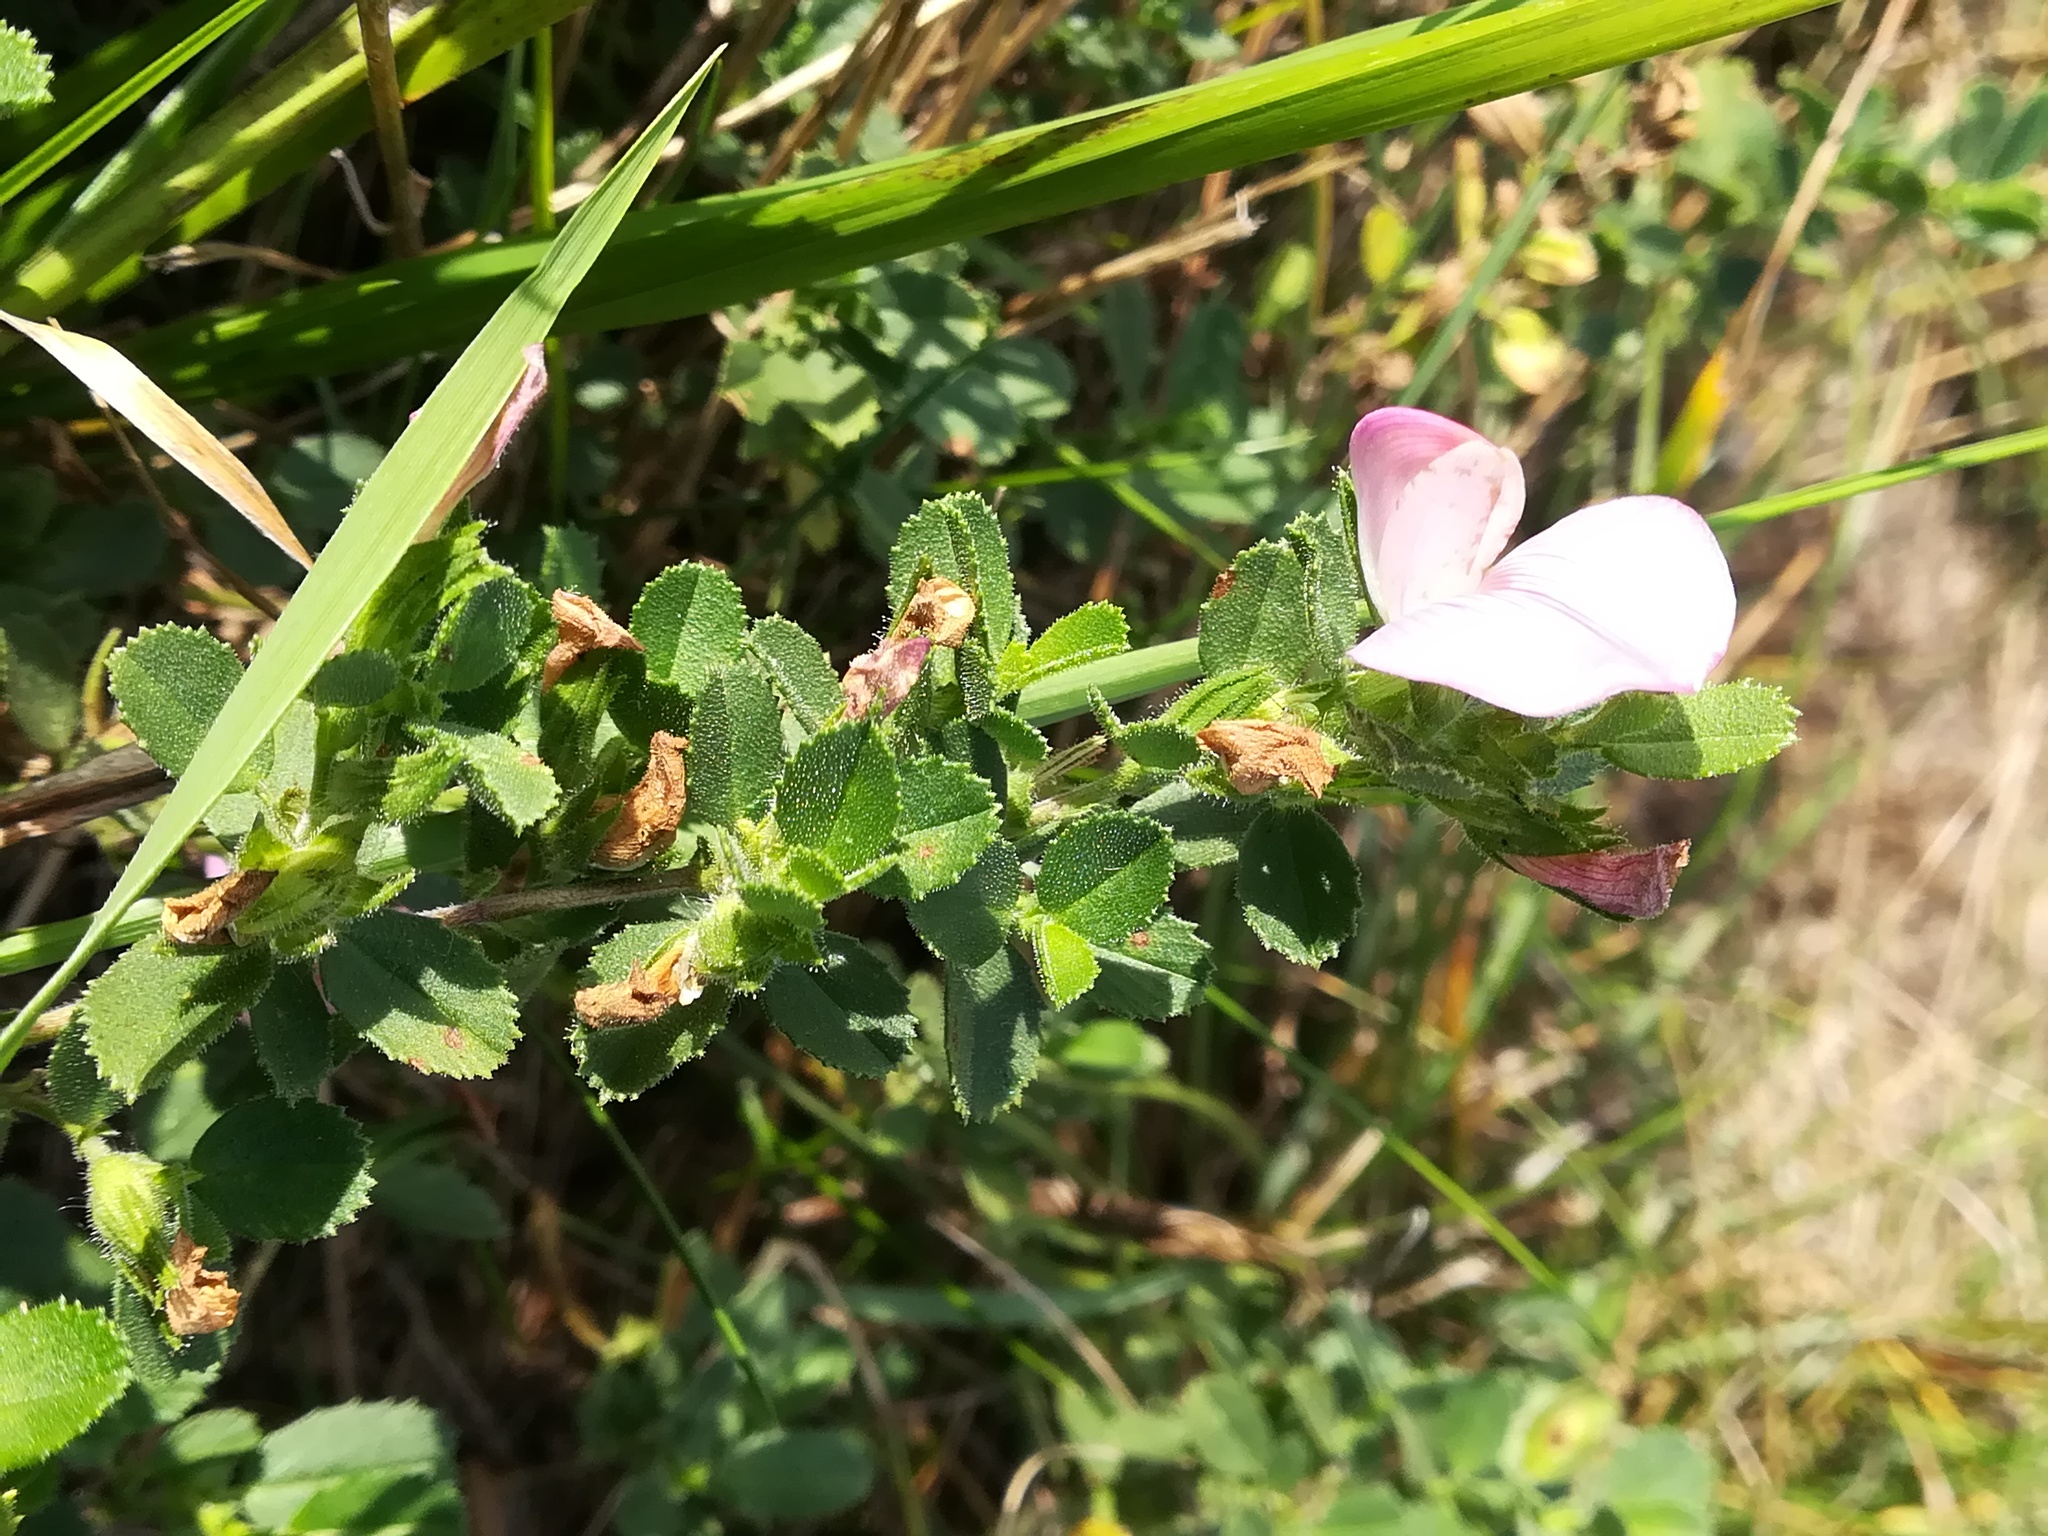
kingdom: Plantae
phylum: Tracheophyta
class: Magnoliopsida
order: Fabales
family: Fabaceae
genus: Ononis
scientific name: Ononis spinosa
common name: Spiny restharrow
